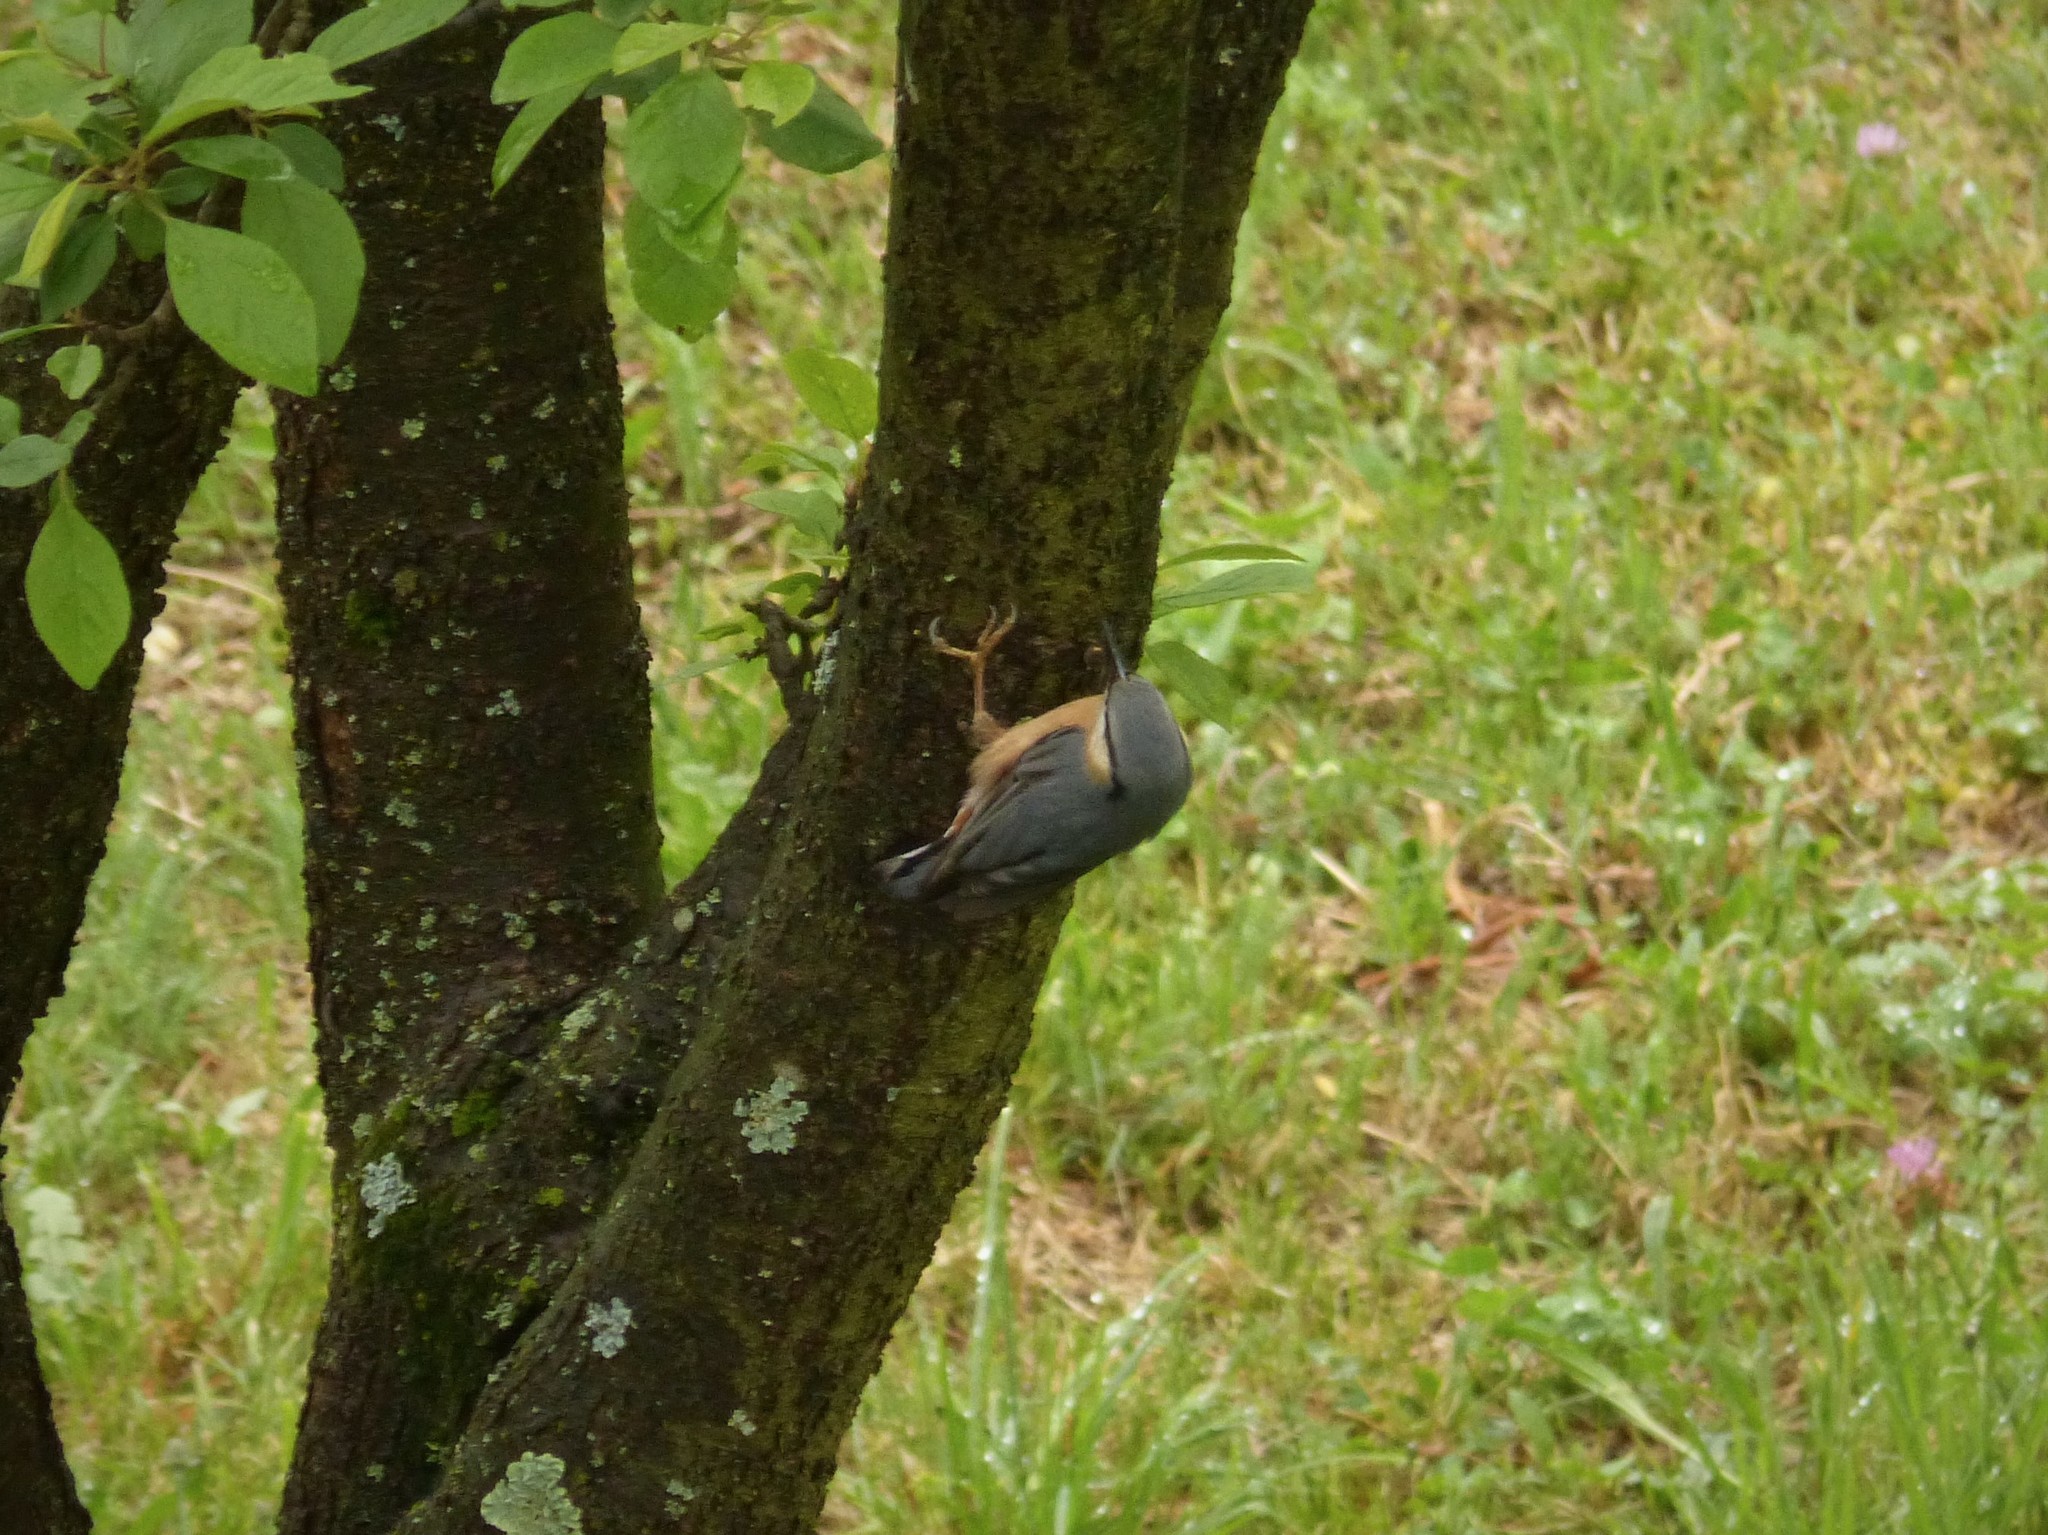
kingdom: Animalia
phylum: Chordata
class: Aves
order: Passeriformes
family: Sittidae
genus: Sitta
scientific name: Sitta europaea
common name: Eurasian nuthatch
